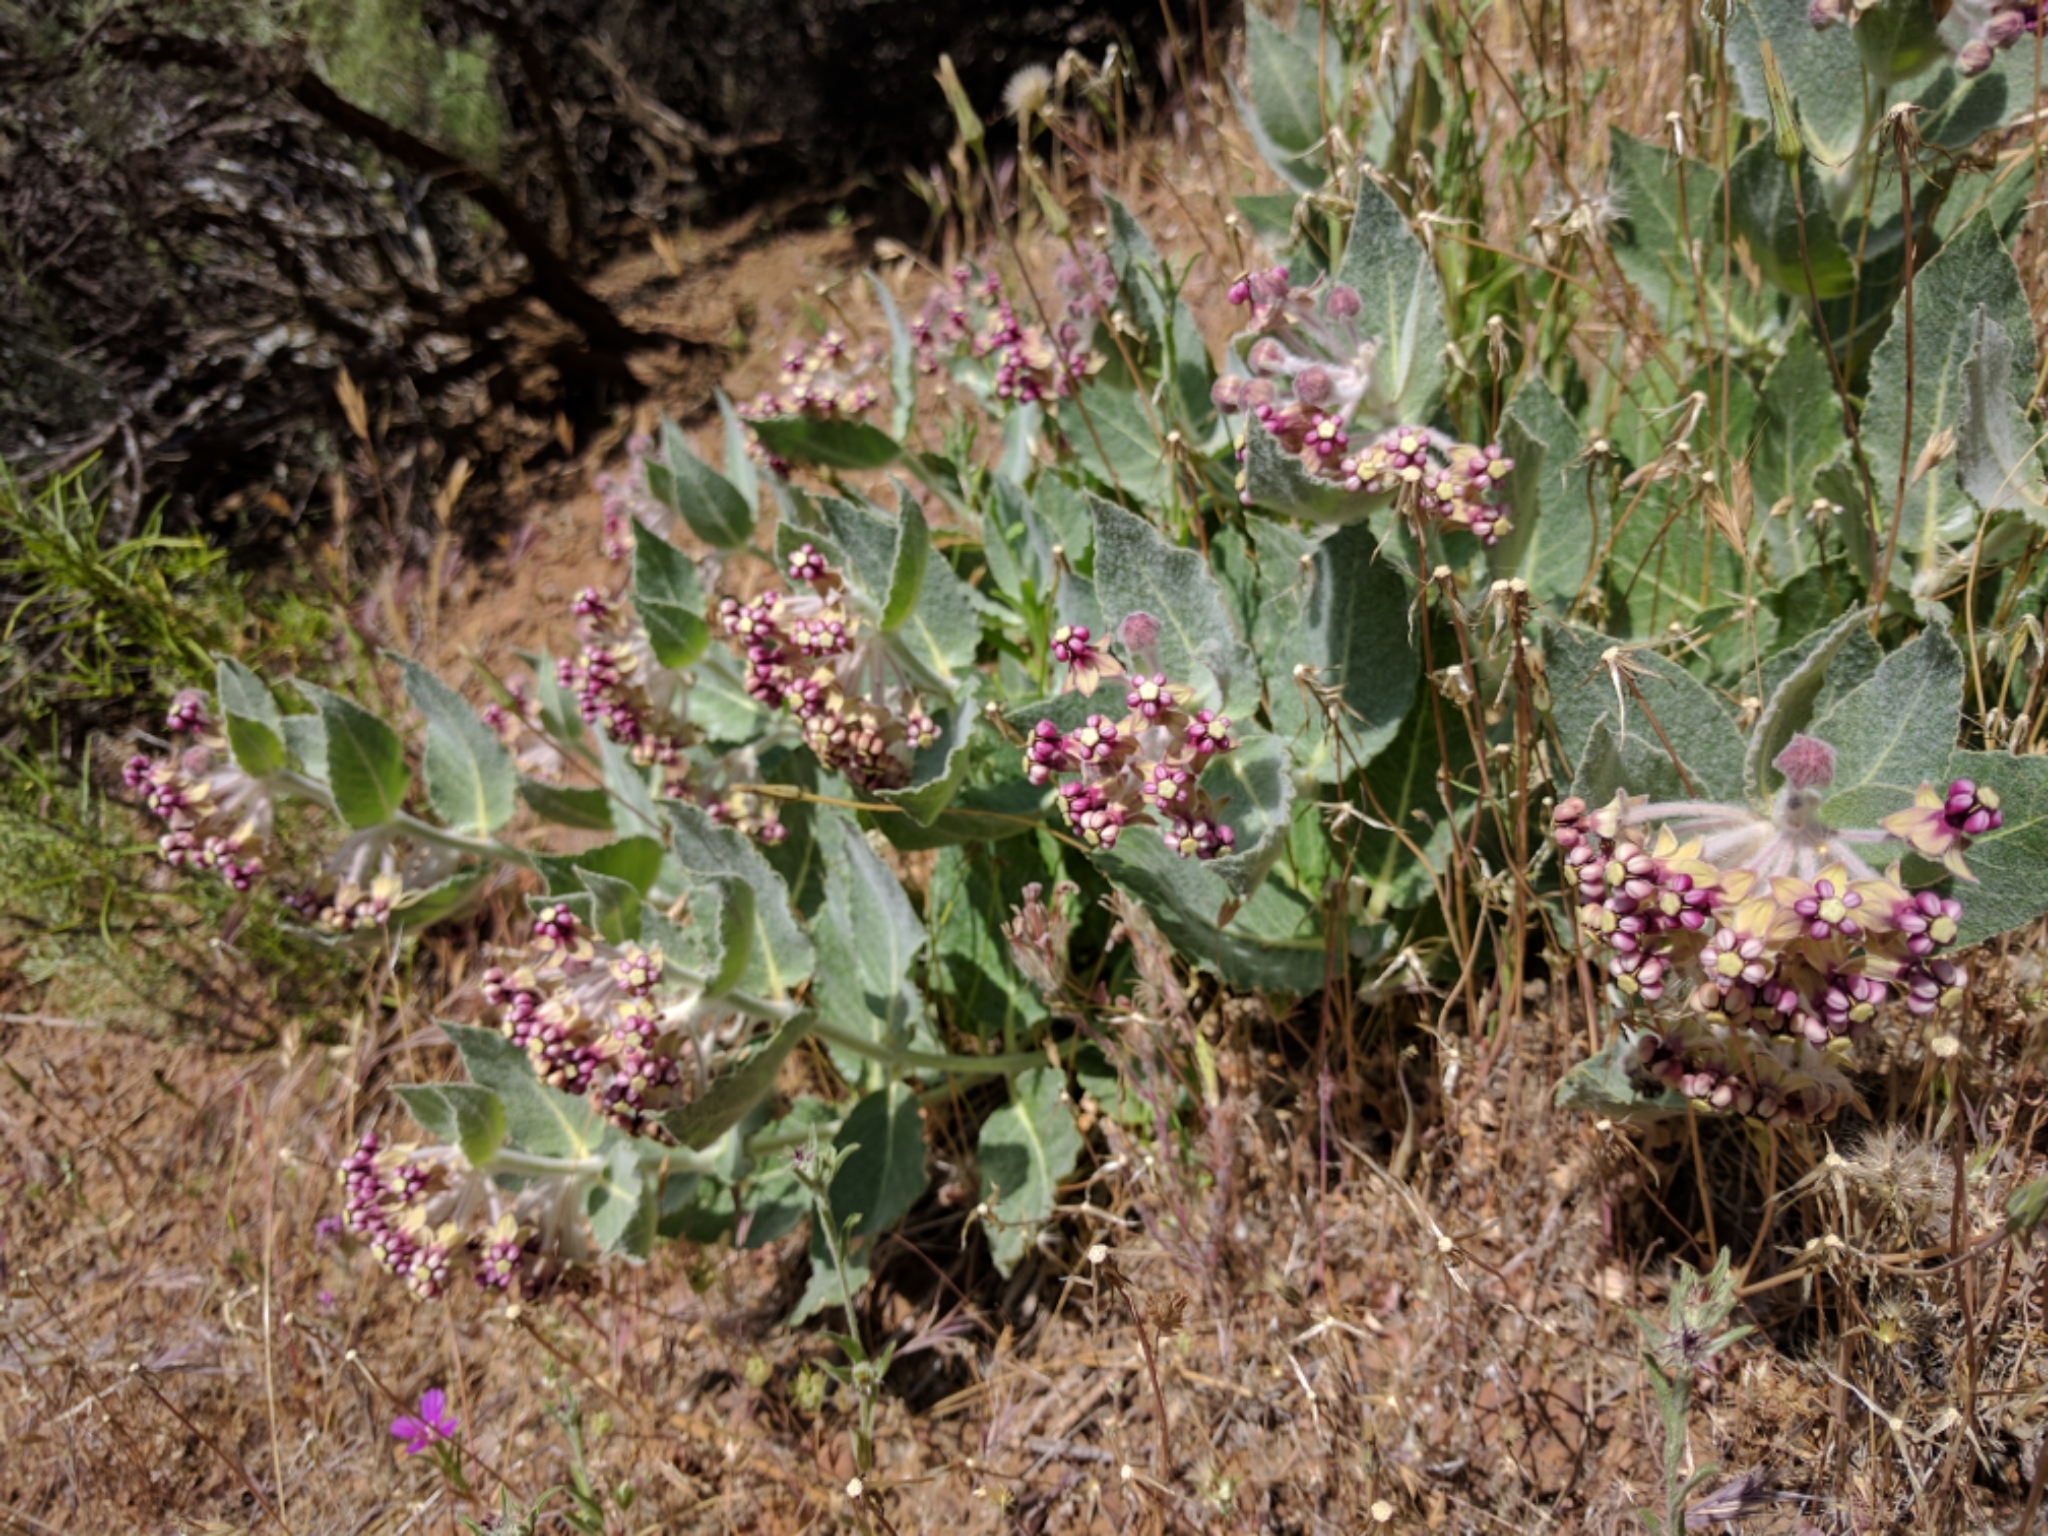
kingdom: Plantae
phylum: Tracheophyta
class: Magnoliopsida
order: Gentianales
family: Apocynaceae
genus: Asclepias
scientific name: Asclepias californica
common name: California milkweed
